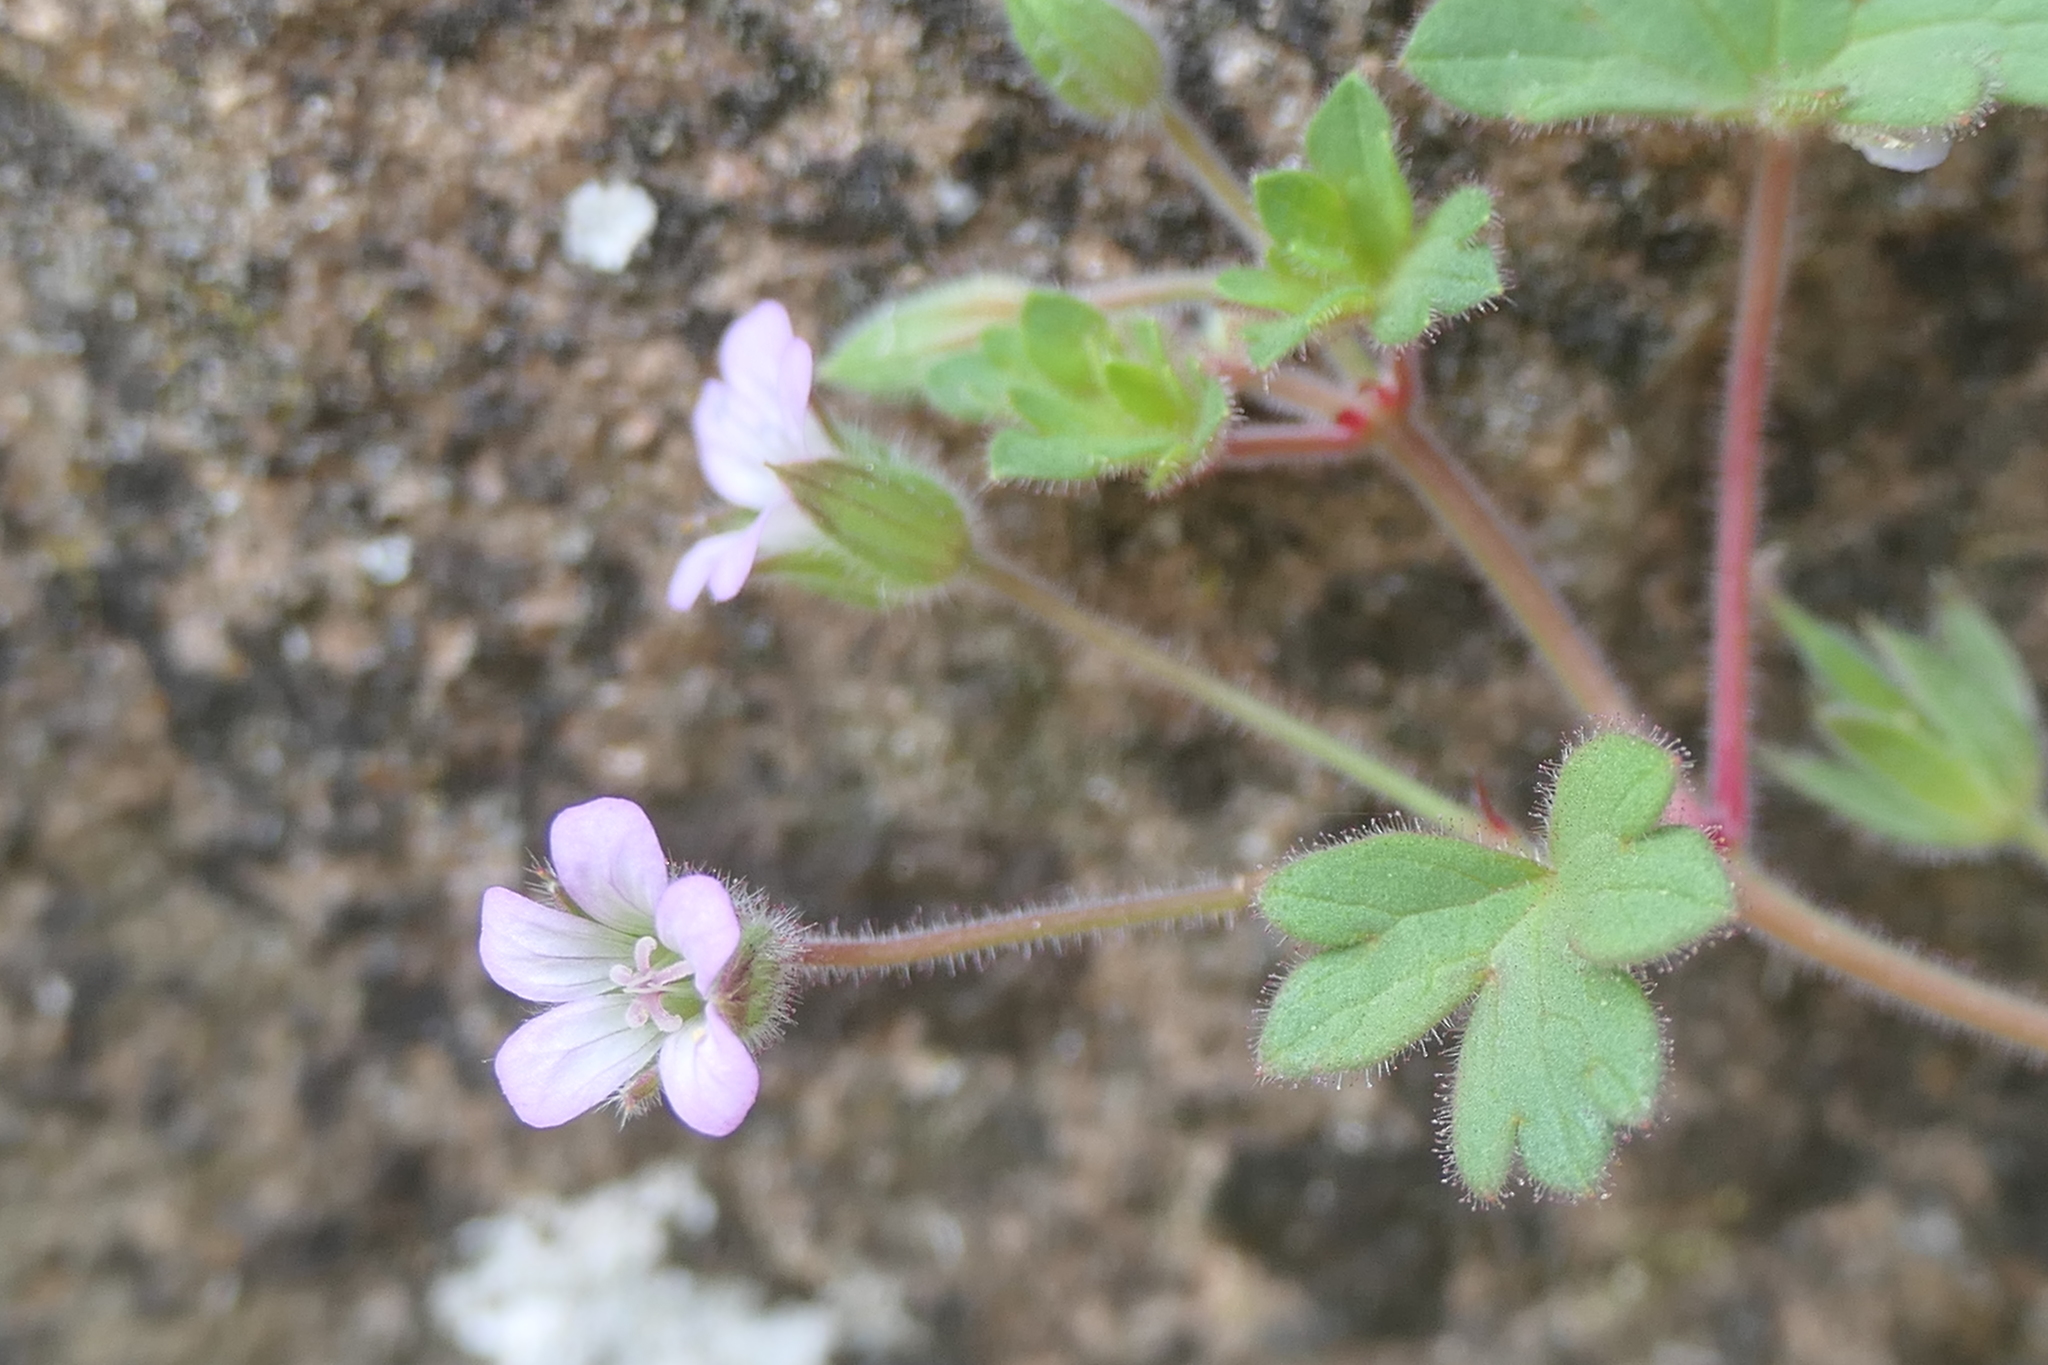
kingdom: Plantae
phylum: Tracheophyta
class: Magnoliopsida
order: Geraniales
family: Geraniaceae
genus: Geranium
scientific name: Geranium rotundifolium
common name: Round-leaved crane's-bill
